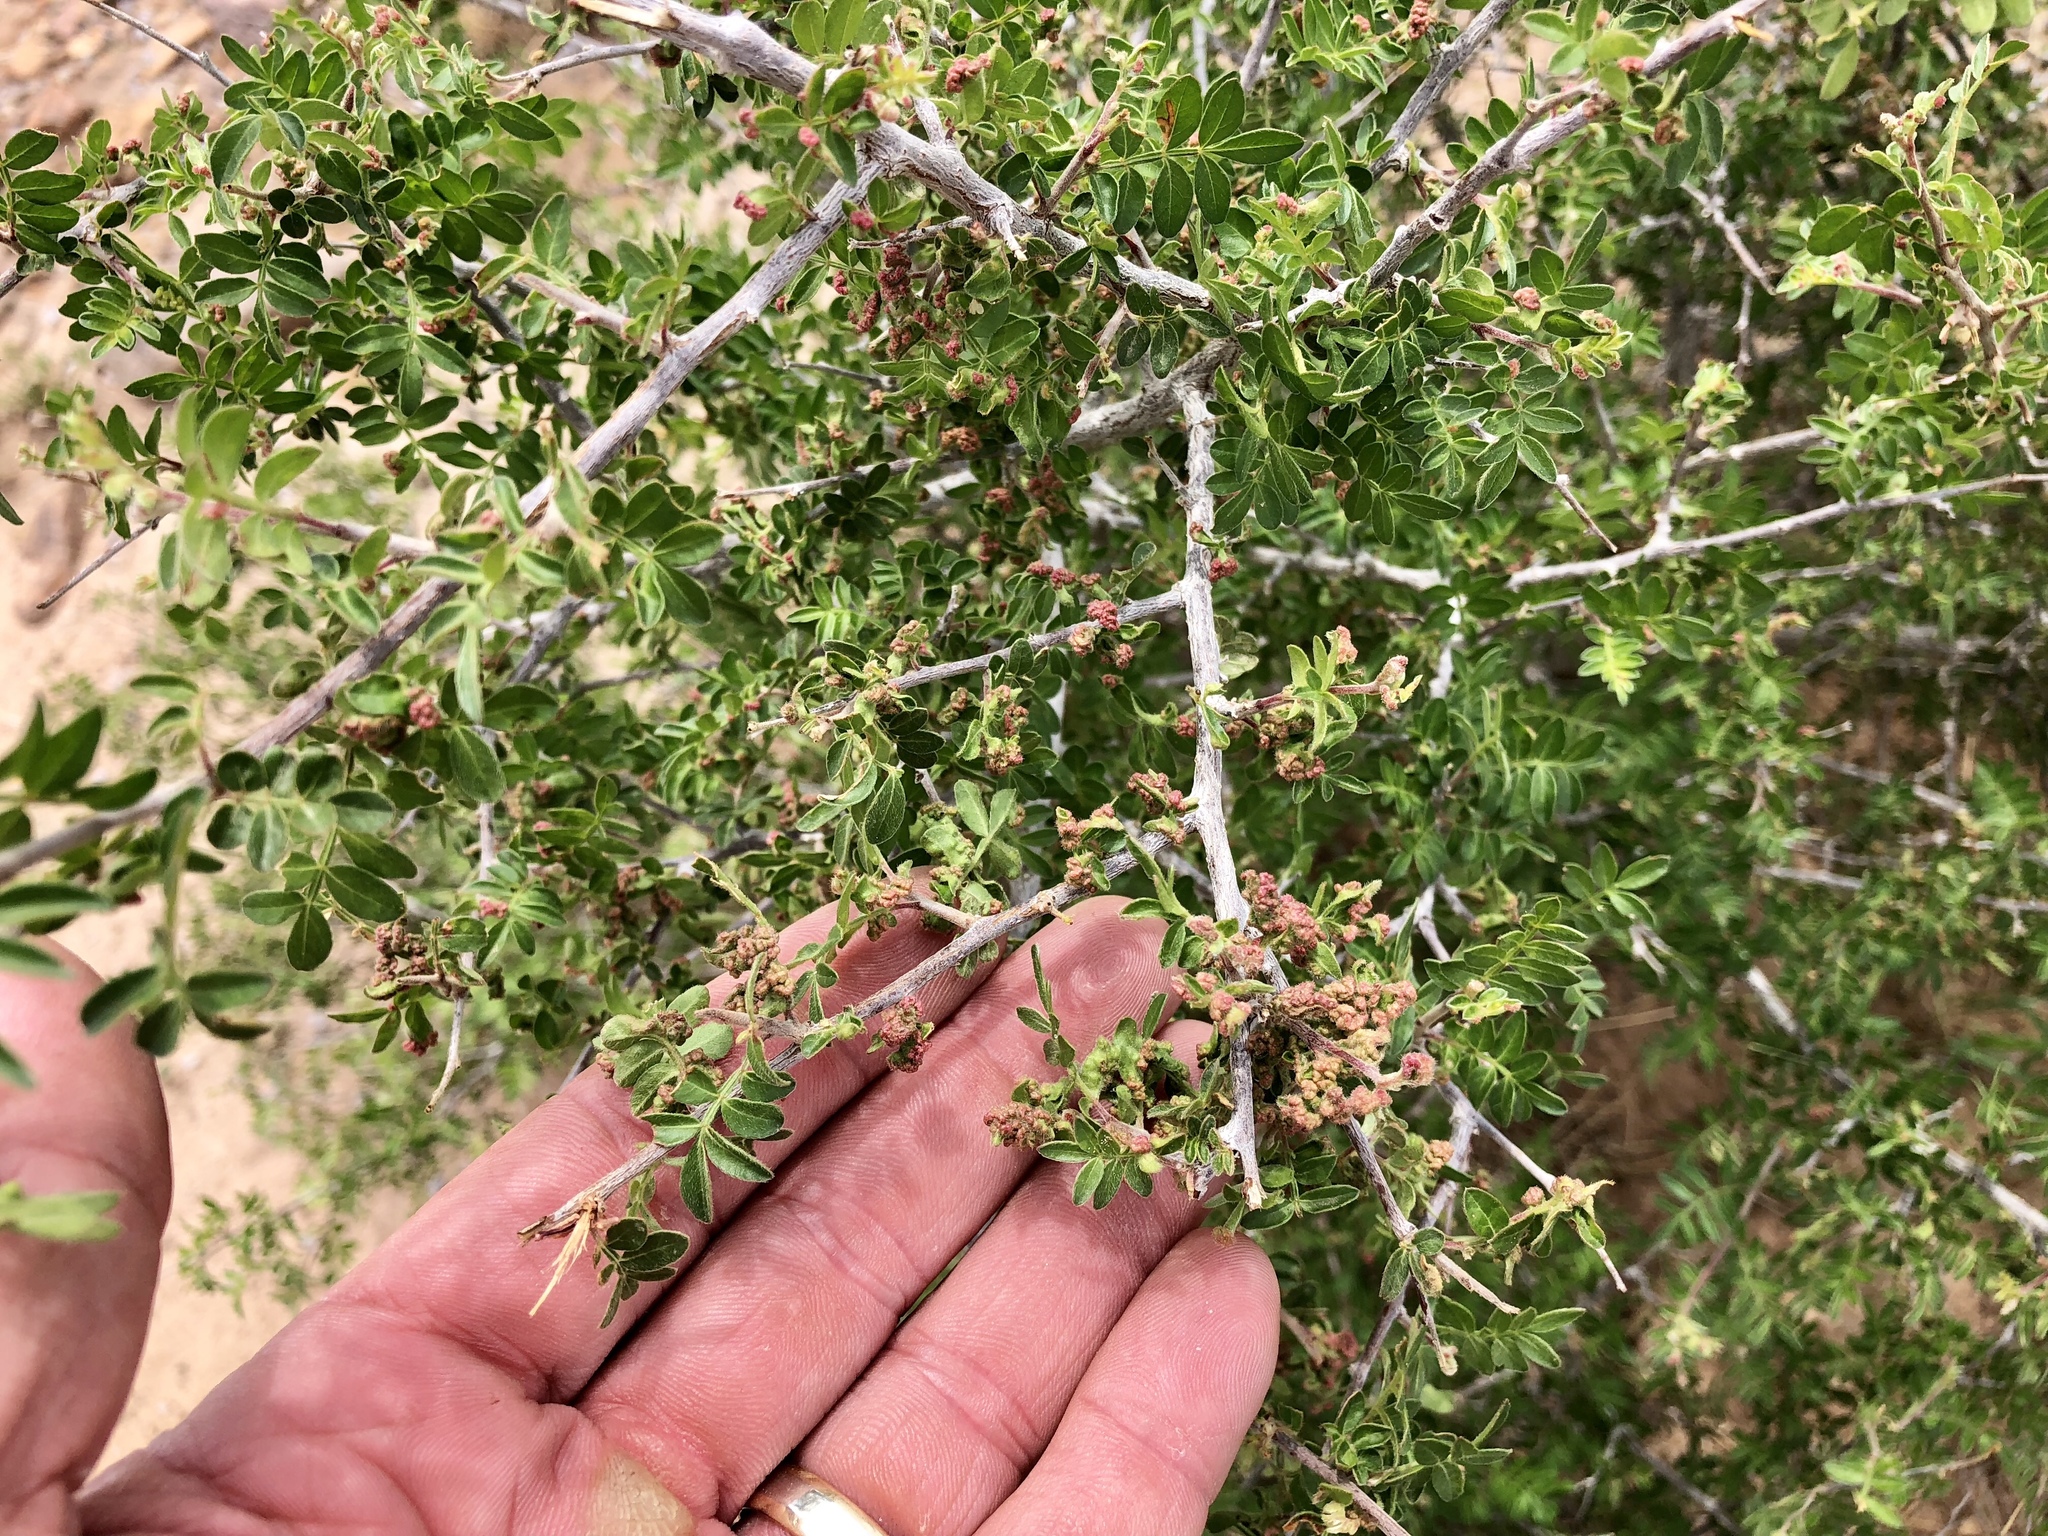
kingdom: Plantae
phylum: Tracheophyta
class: Magnoliopsida
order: Sapindales
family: Anacardiaceae
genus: Rhus
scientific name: Rhus microphylla
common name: Desert sumac
